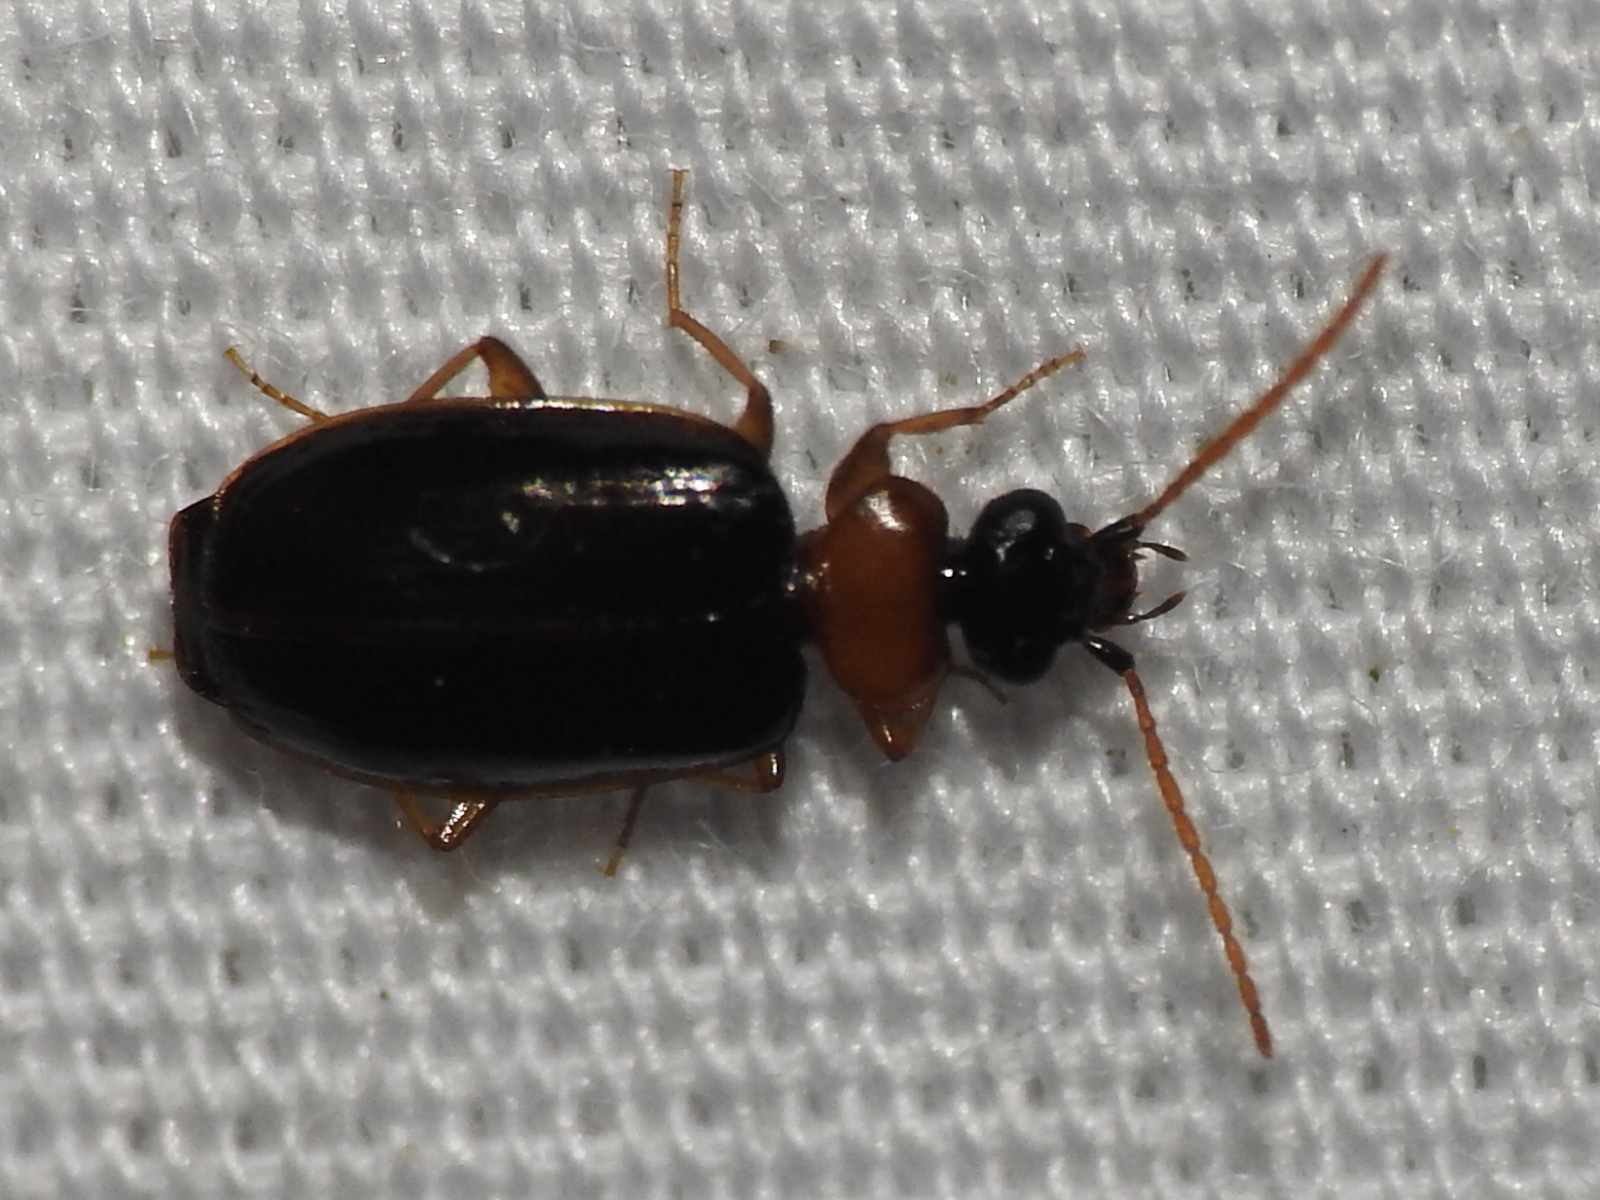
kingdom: Animalia
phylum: Arthropoda
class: Insecta
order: Coleoptera
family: Carabidae
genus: Pentagonica
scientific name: Pentagonica marshalli
